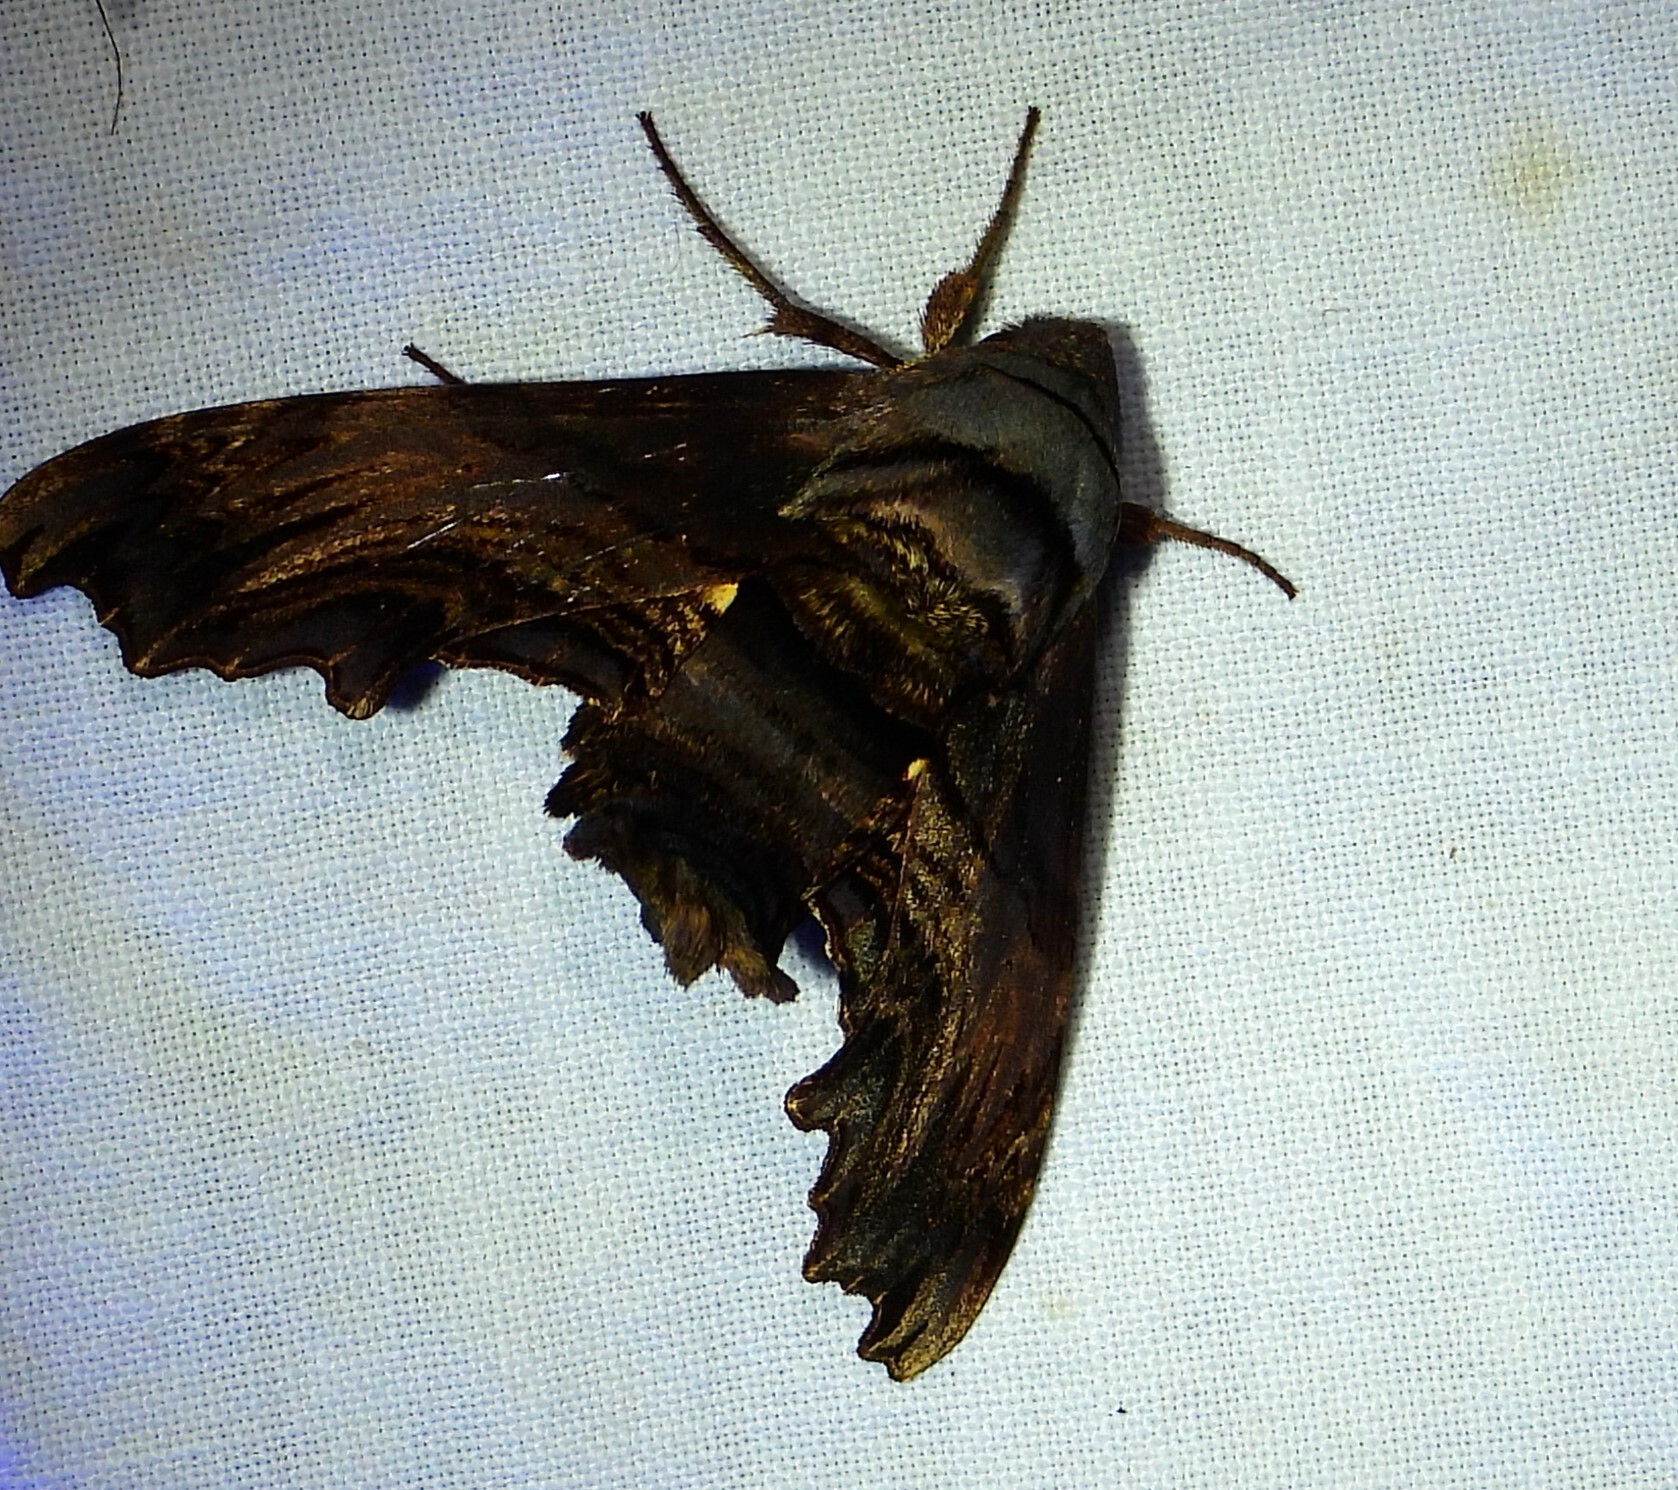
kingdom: Animalia
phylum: Arthropoda
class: Insecta
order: Lepidoptera
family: Sphingidae
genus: Sphecodina
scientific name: Sphecodina abbottii
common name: Abbott's sphinx
